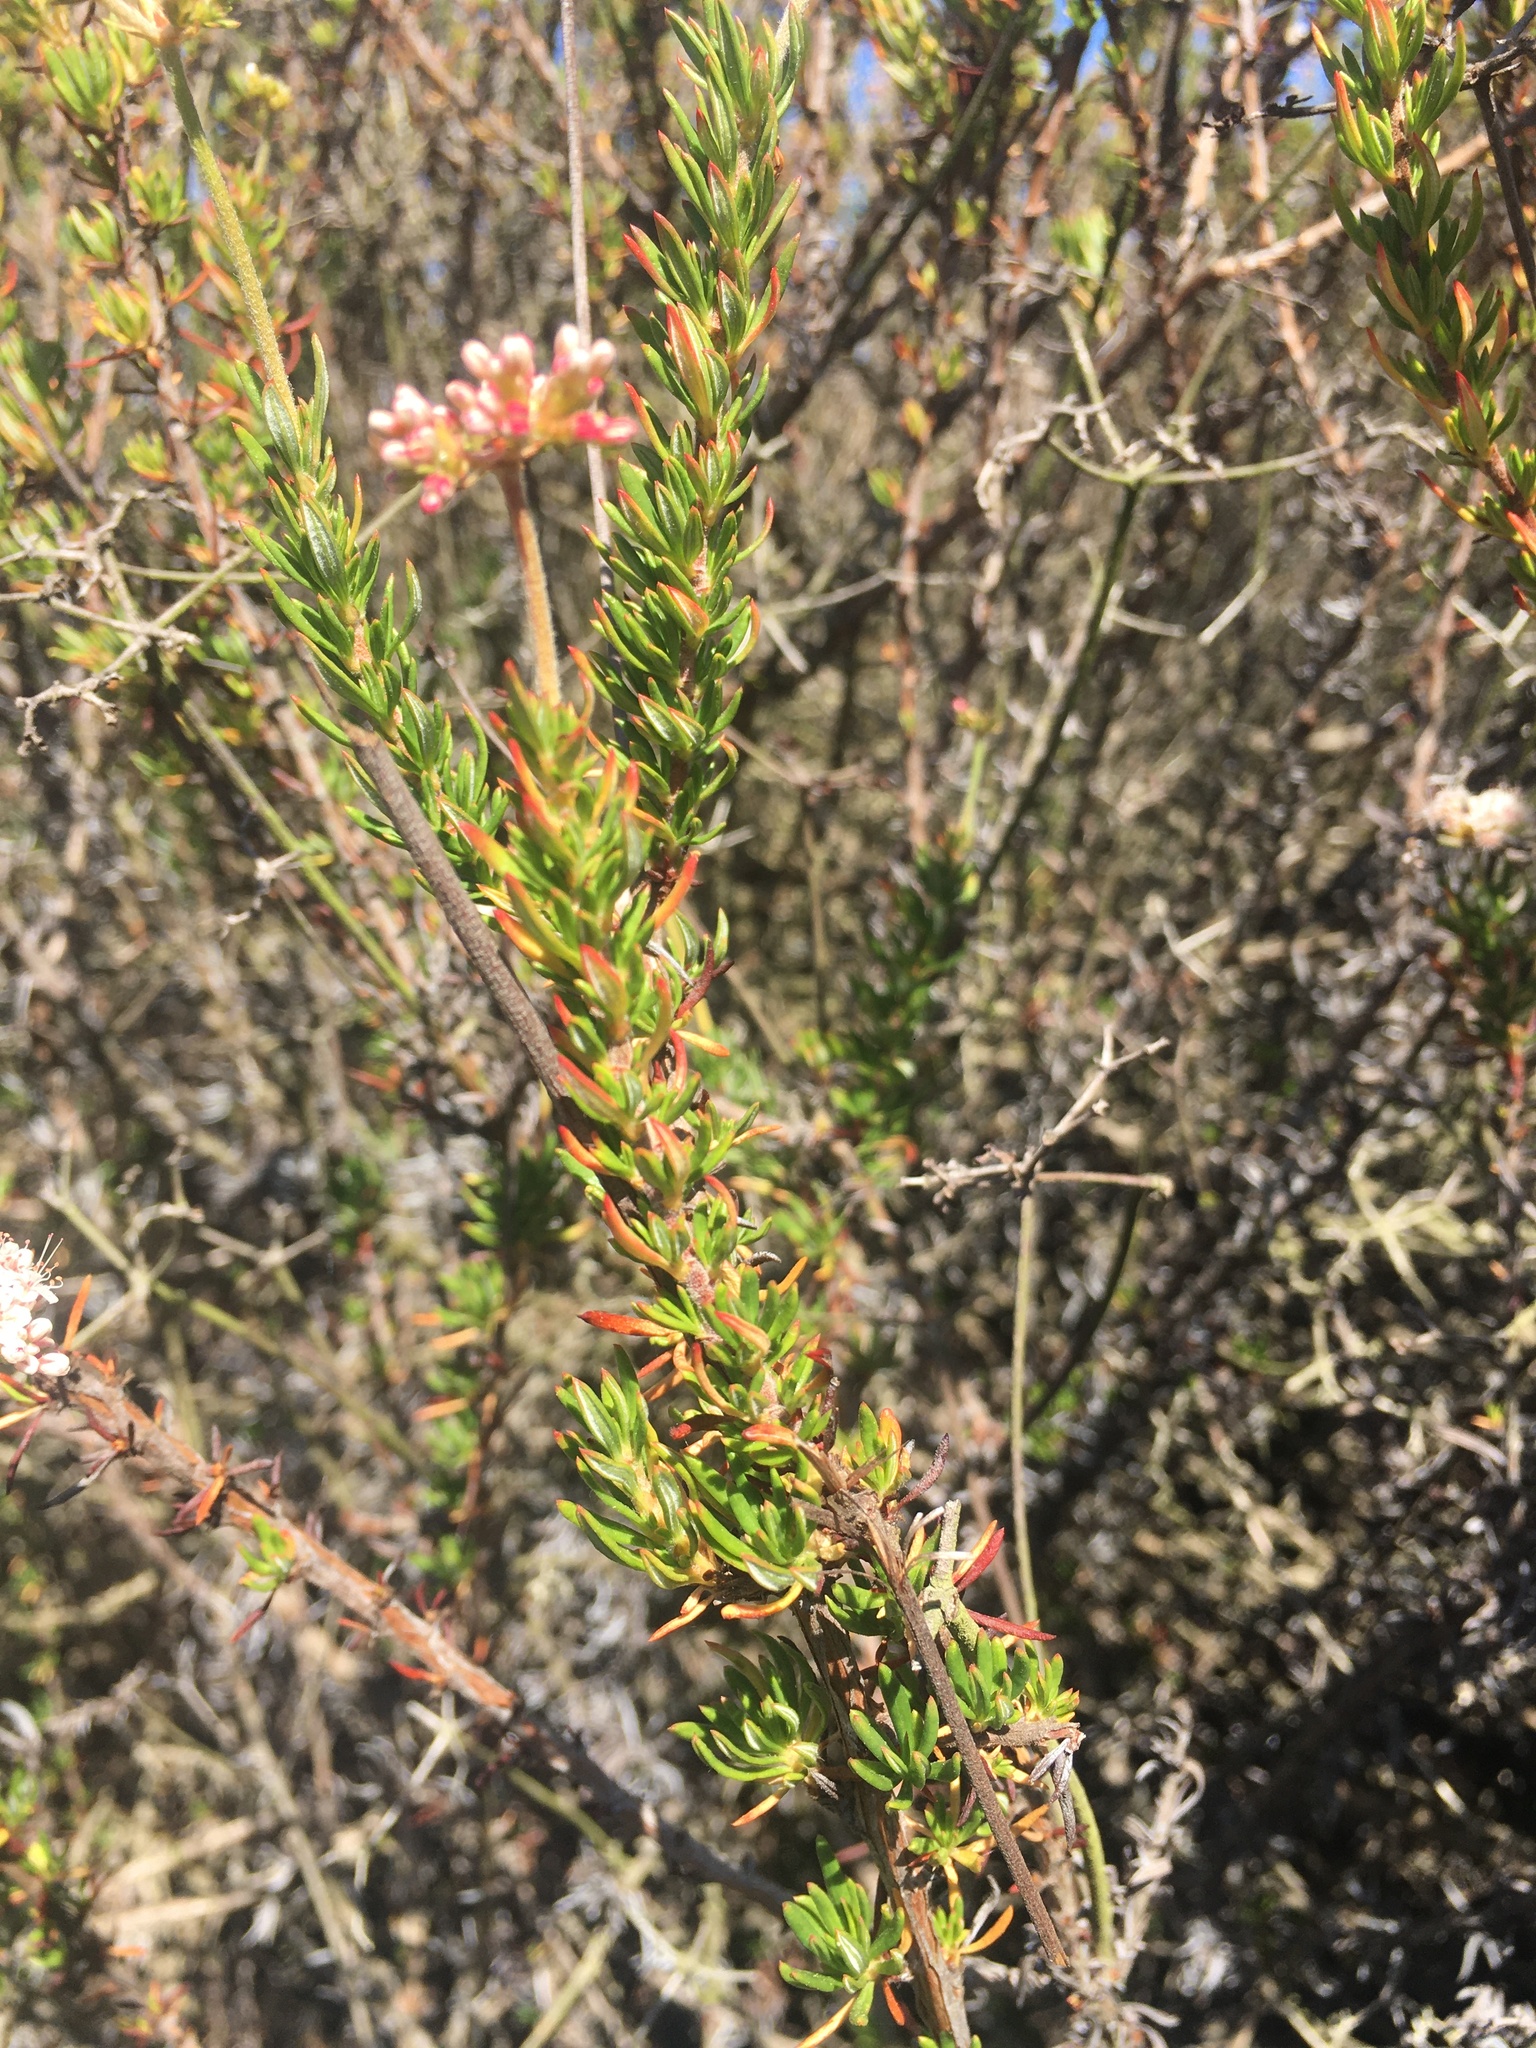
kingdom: Plantae
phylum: Tracheophyta
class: Magnoliopsida
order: Caryophyllales
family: Polygonaceae
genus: Eriogonum
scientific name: Eriogonum fasciculatum
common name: California wild buckwheat
